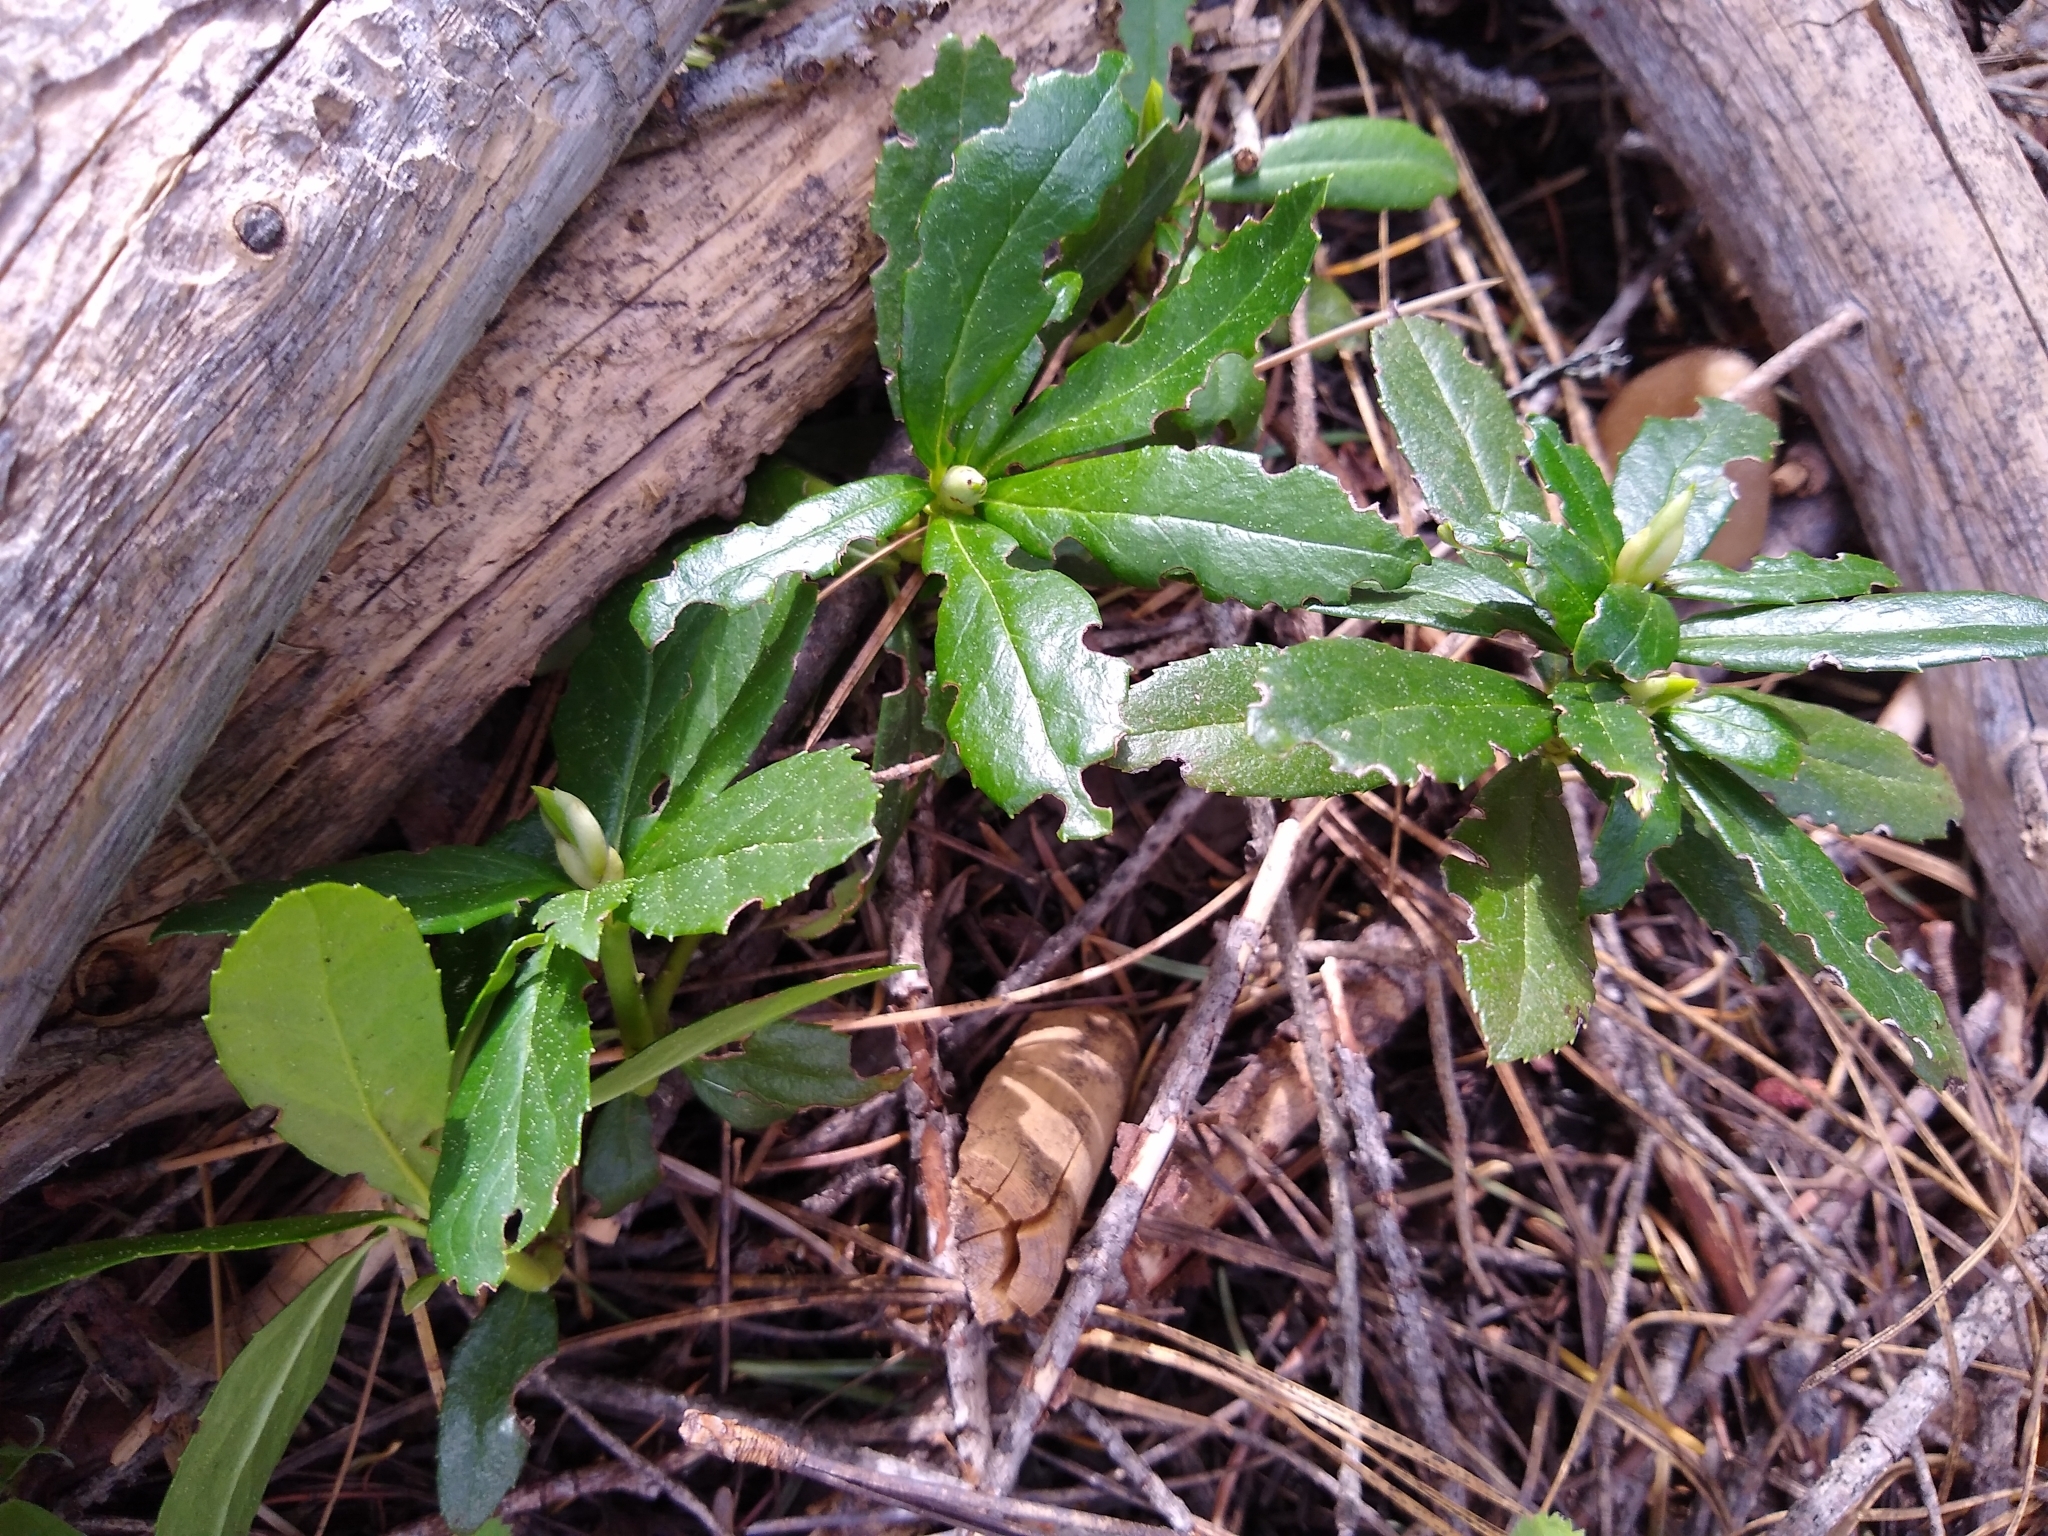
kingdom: Plantae
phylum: Tracheophyta
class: Magnoliopsida
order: Ericales
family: Ericaceae
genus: Chimaphila
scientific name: Chimaphila umbellata
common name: Pipsissewa
